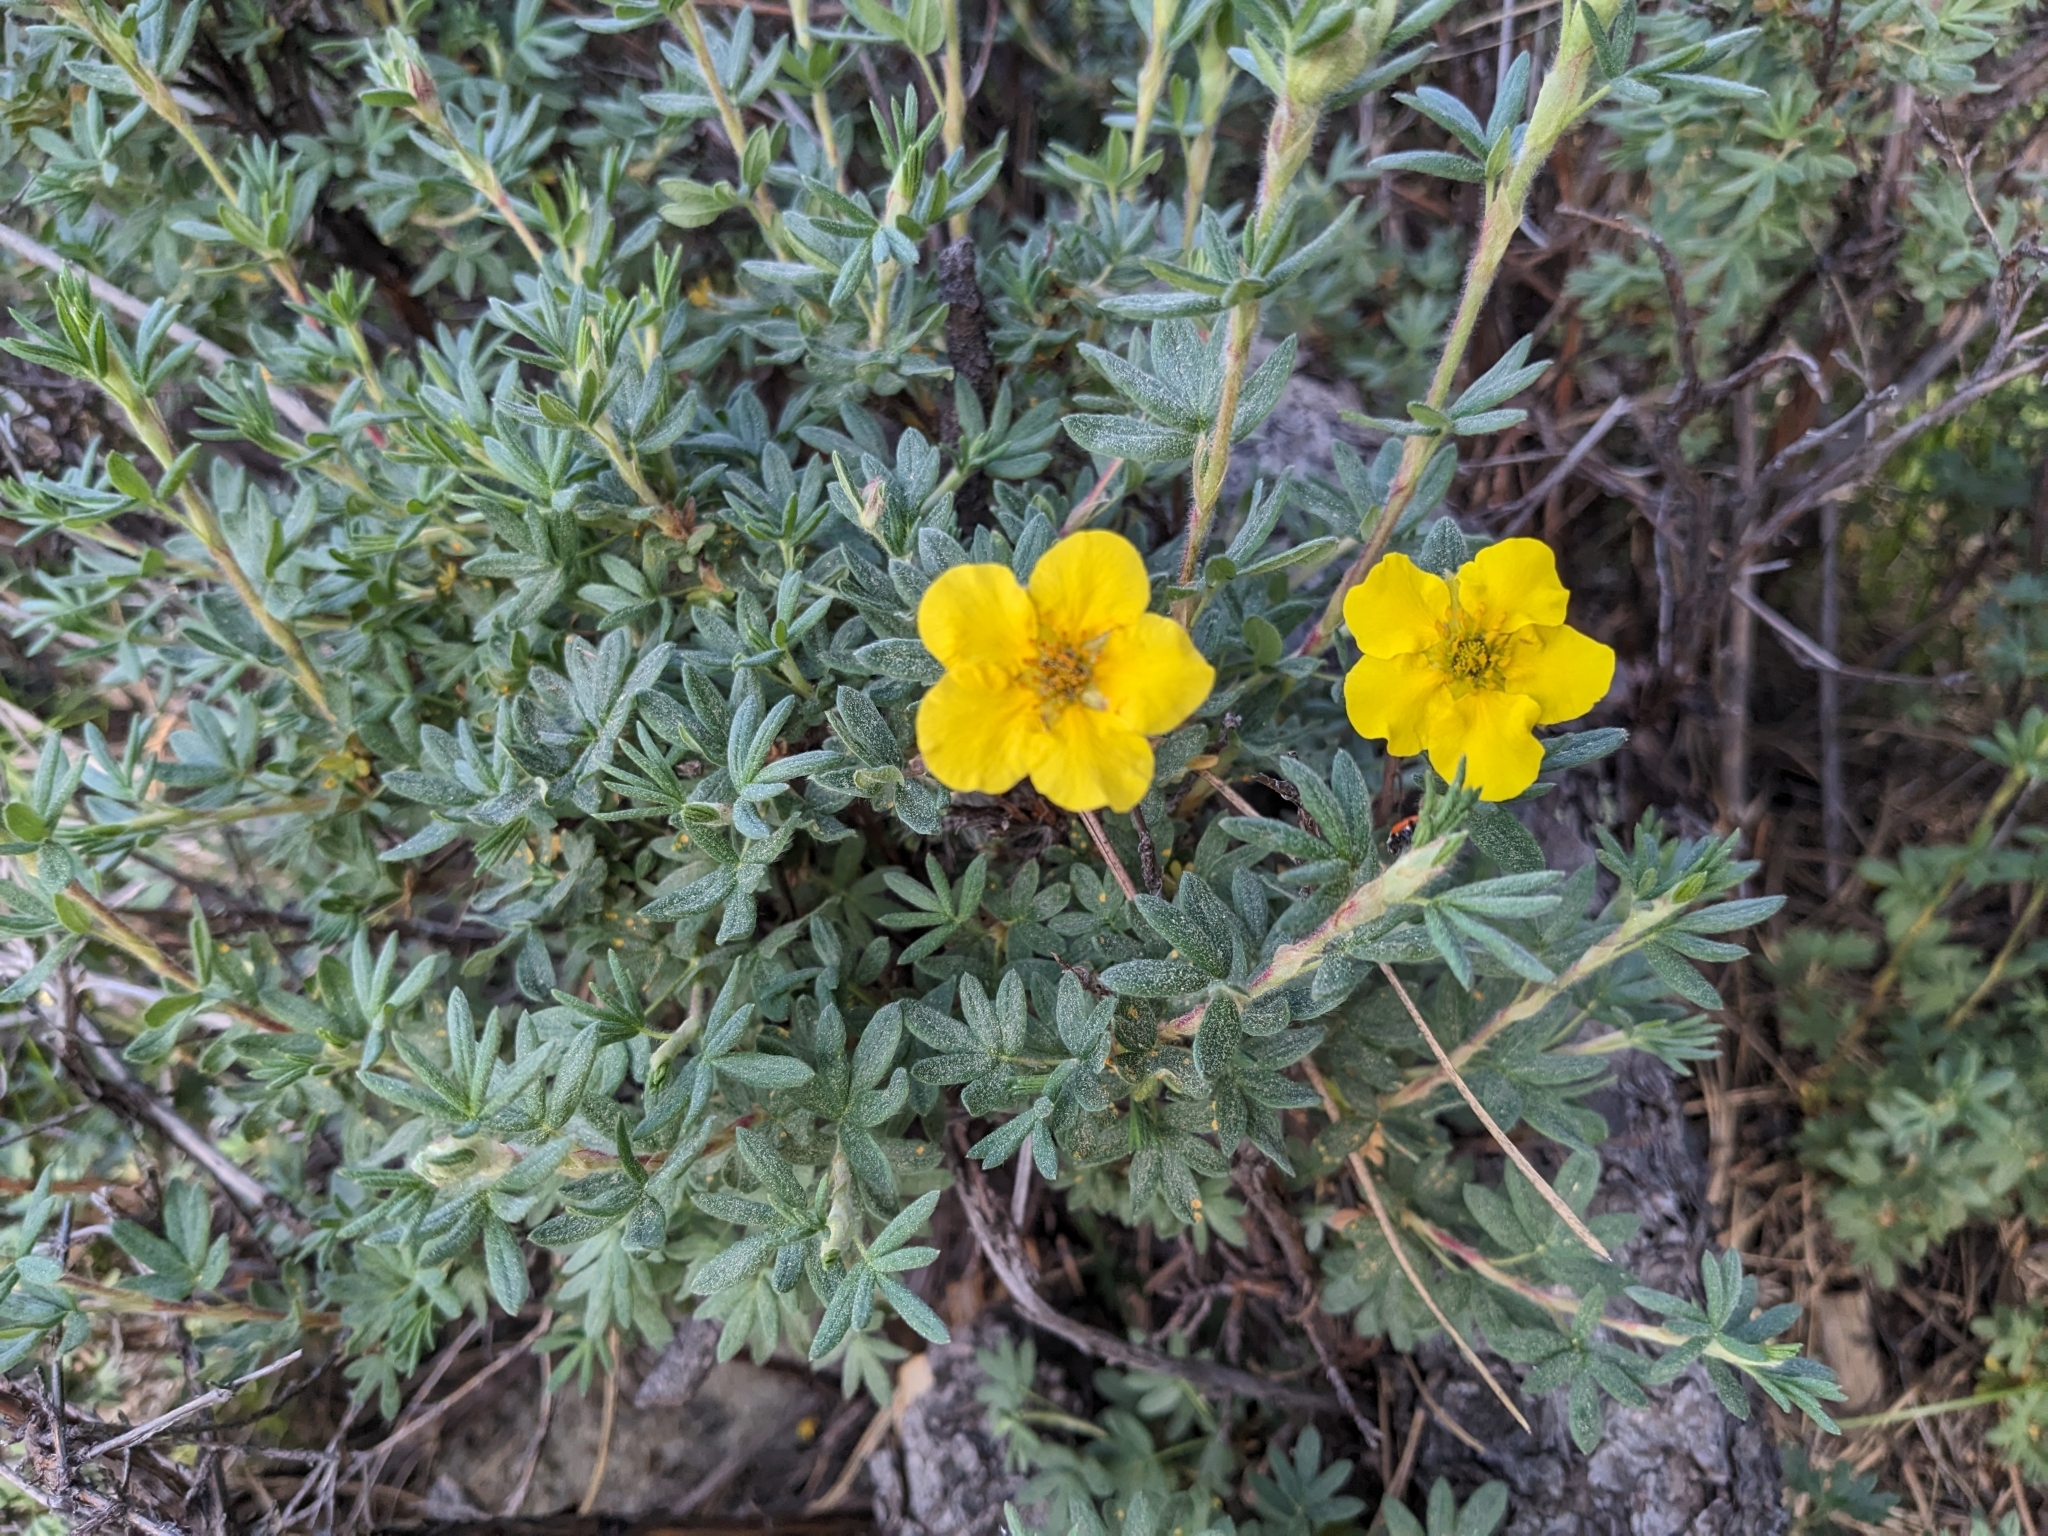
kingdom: Plantae
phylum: Tracheophyta
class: Magnoliopsida
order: Rosales
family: Rosaceae
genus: Dasiphora
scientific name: Dasiphora fruticosa
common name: Shrubby cinquefoil
